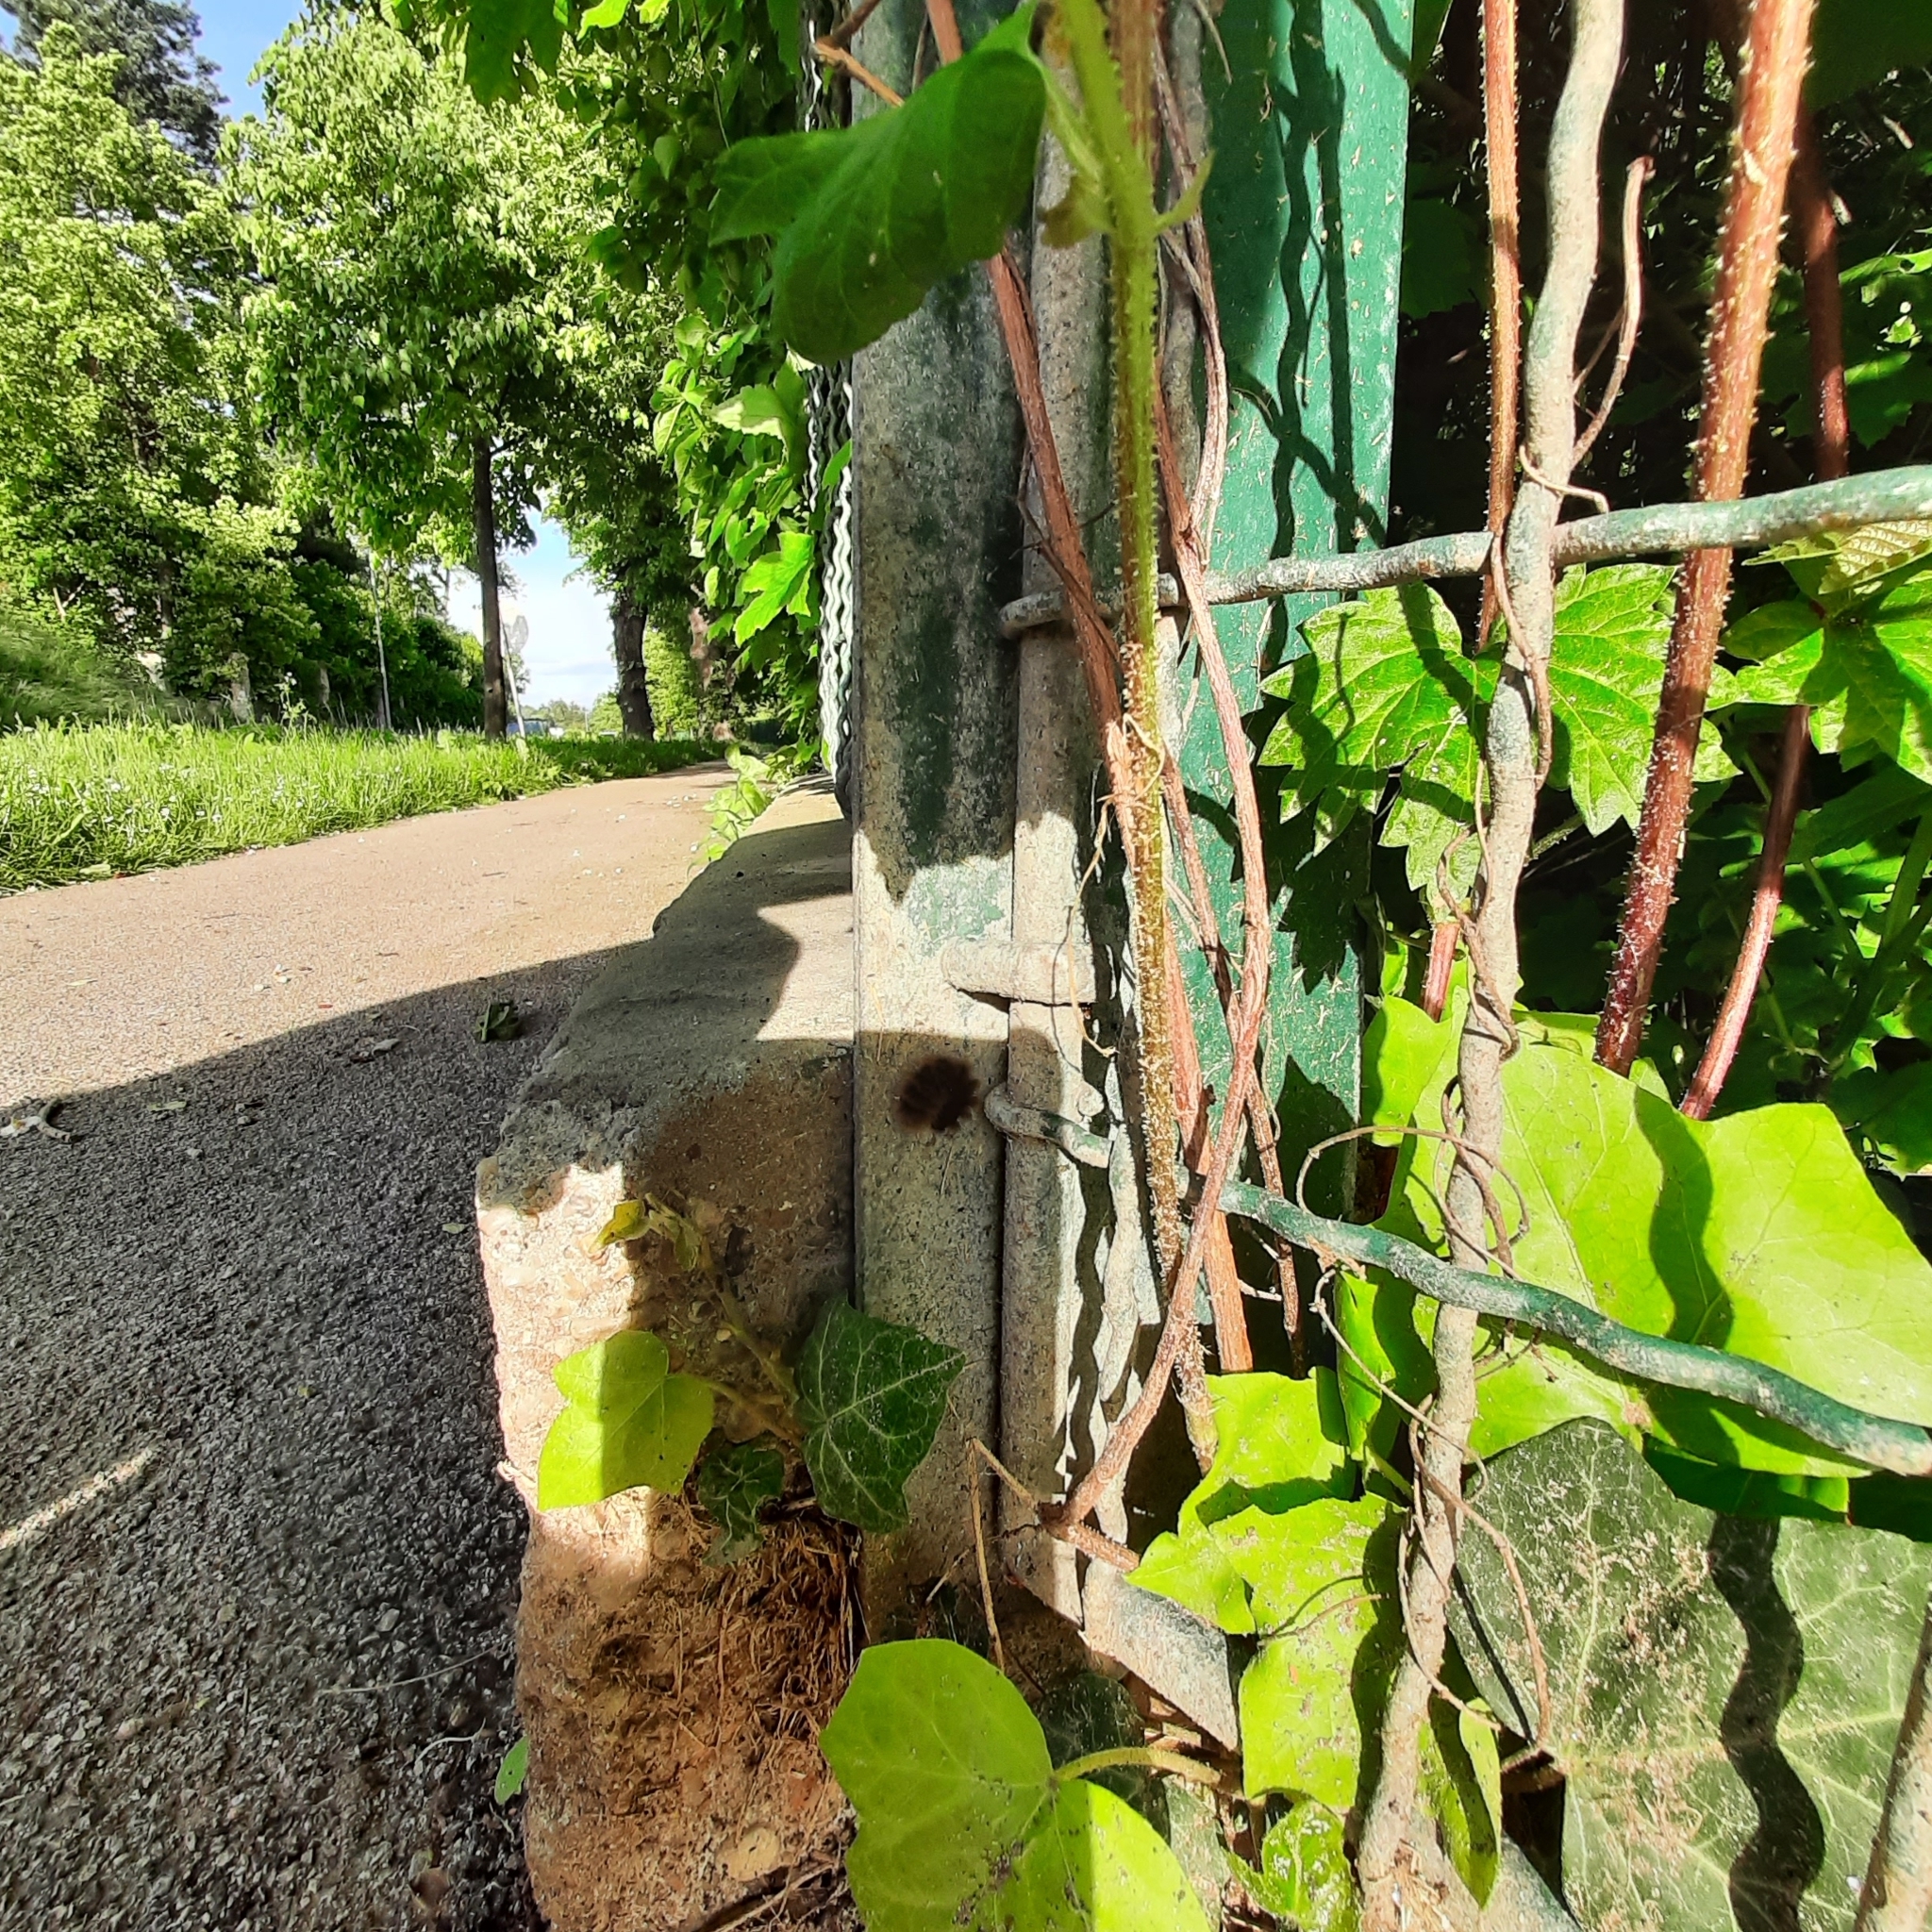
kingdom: Animalia
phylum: Arthropoda
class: Insecta
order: Lepidoptera
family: Erebidae
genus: Amata
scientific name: Amata phegea
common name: Nine-spotted
